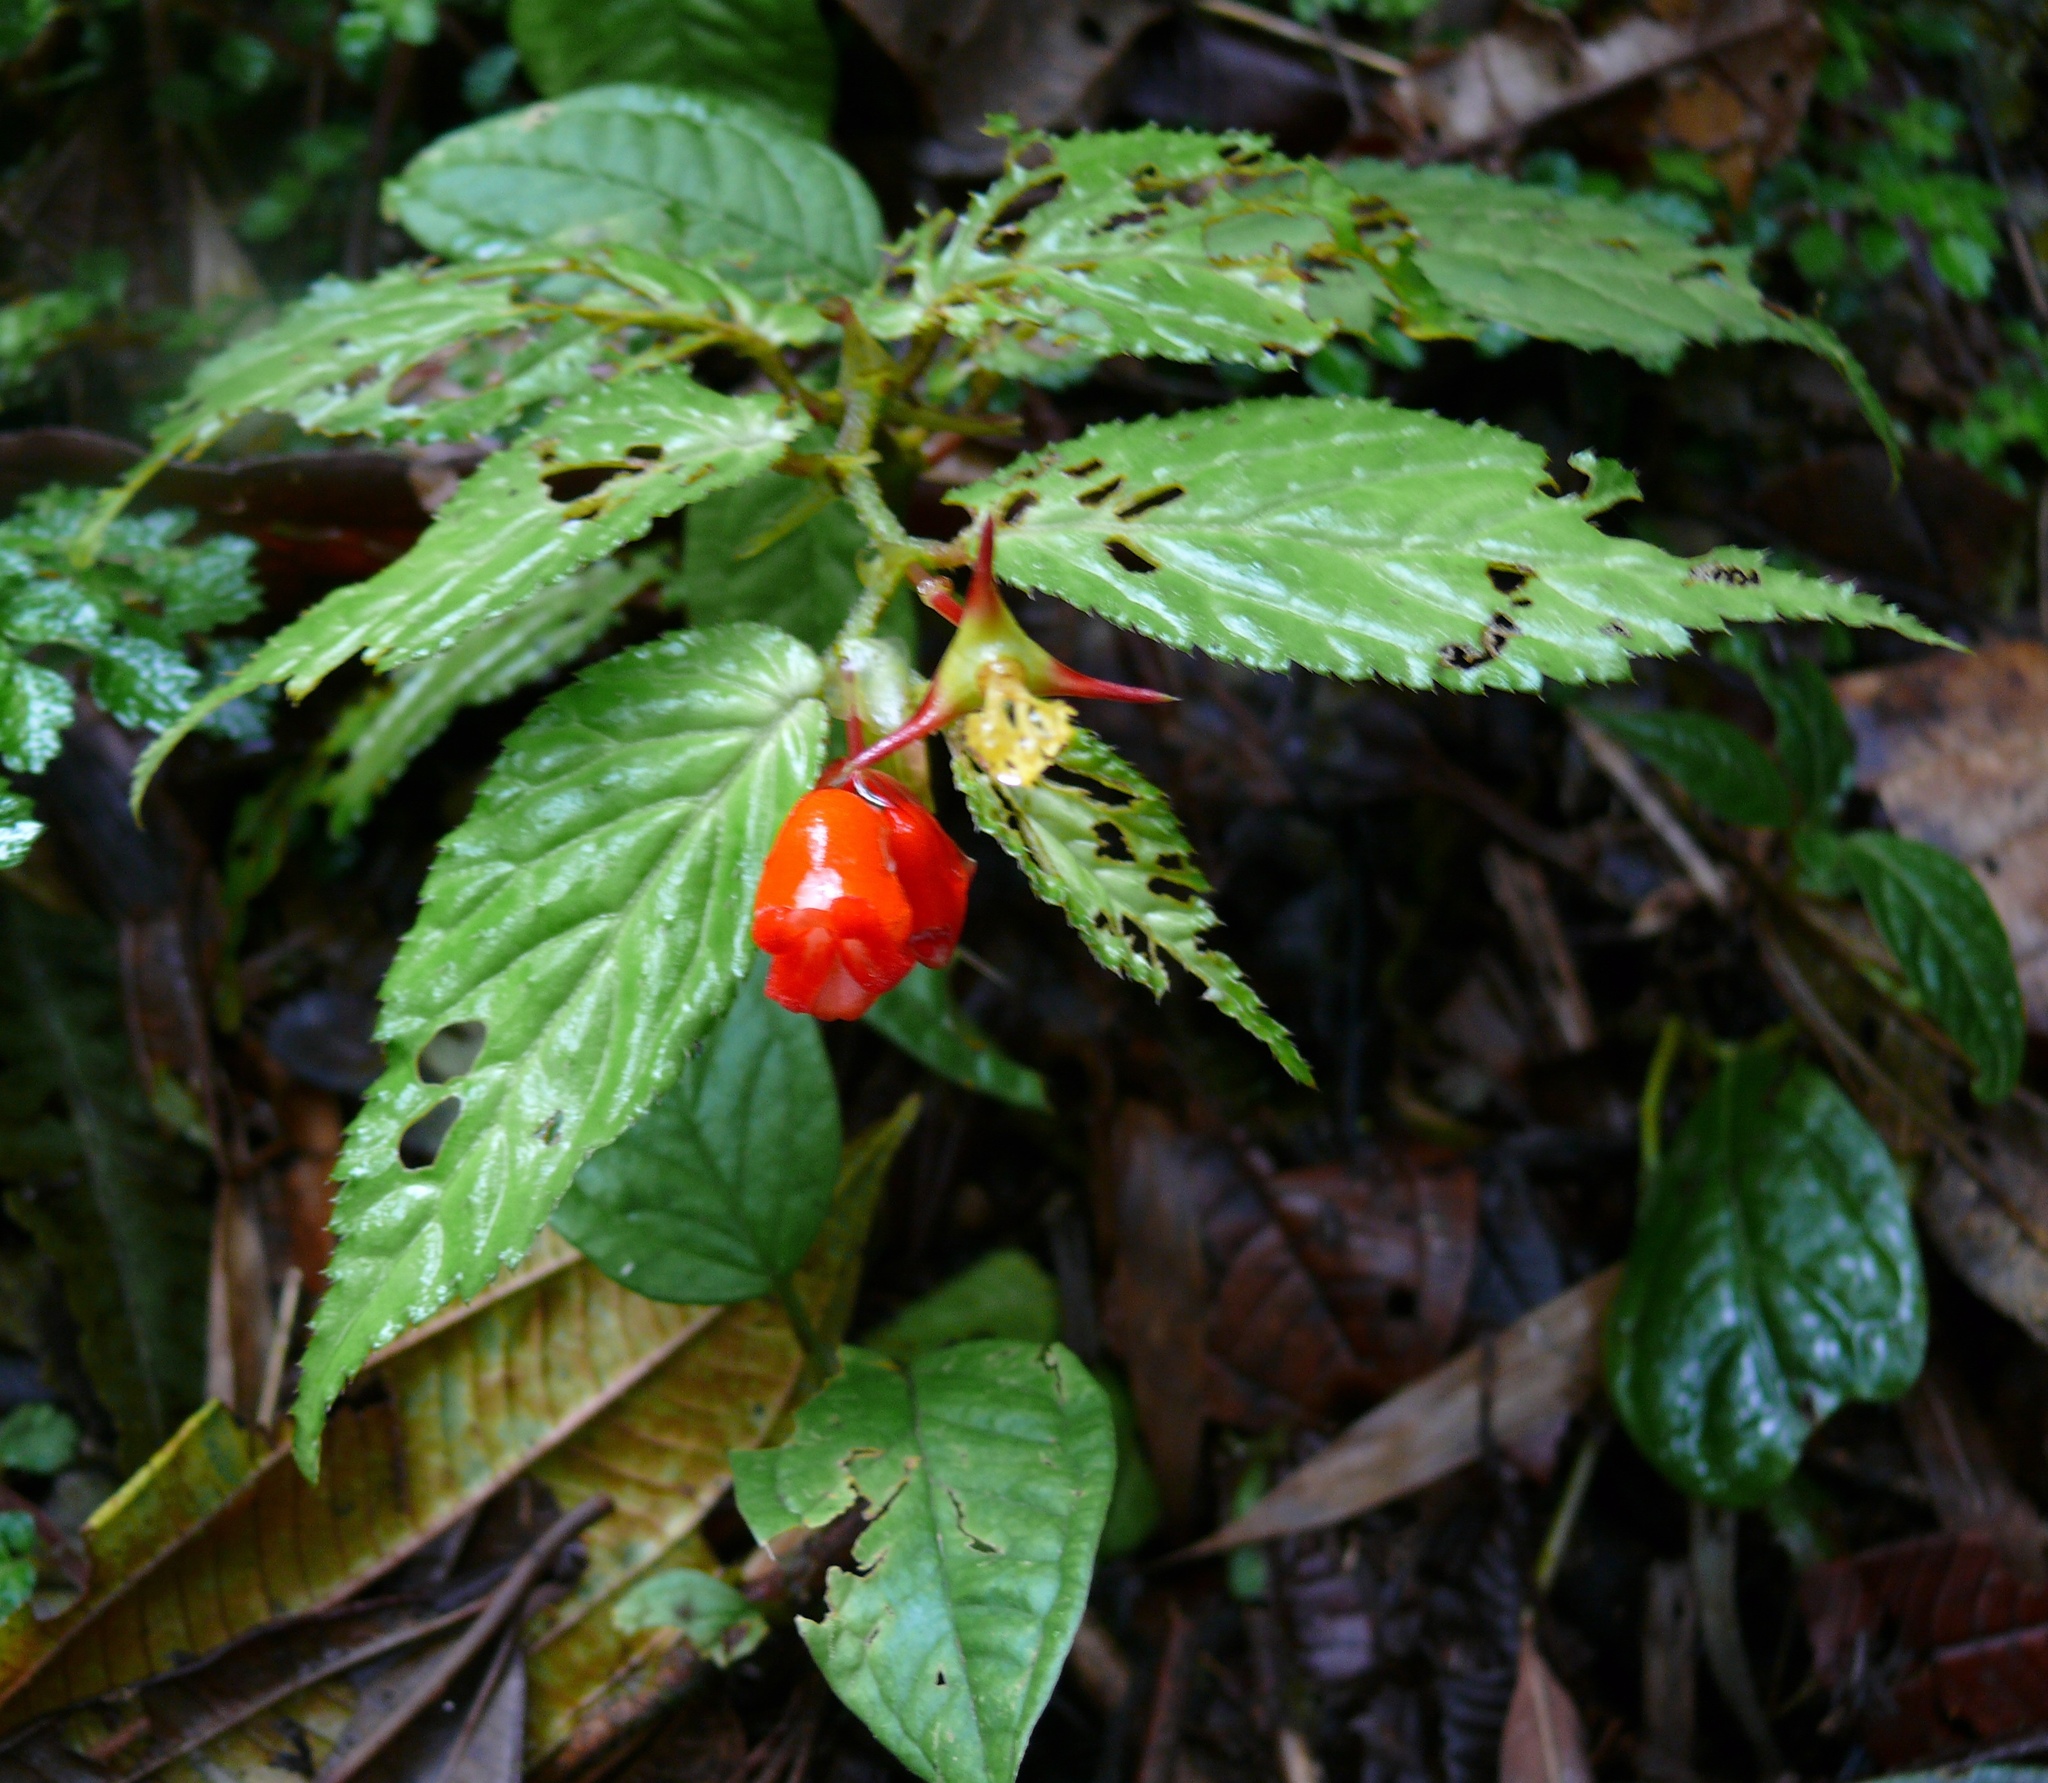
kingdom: Plantae
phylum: Tracheophyta
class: Magnoliopsida
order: Cucurbitales
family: Begoniaceae
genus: Begonia
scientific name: Begonia longirostris
